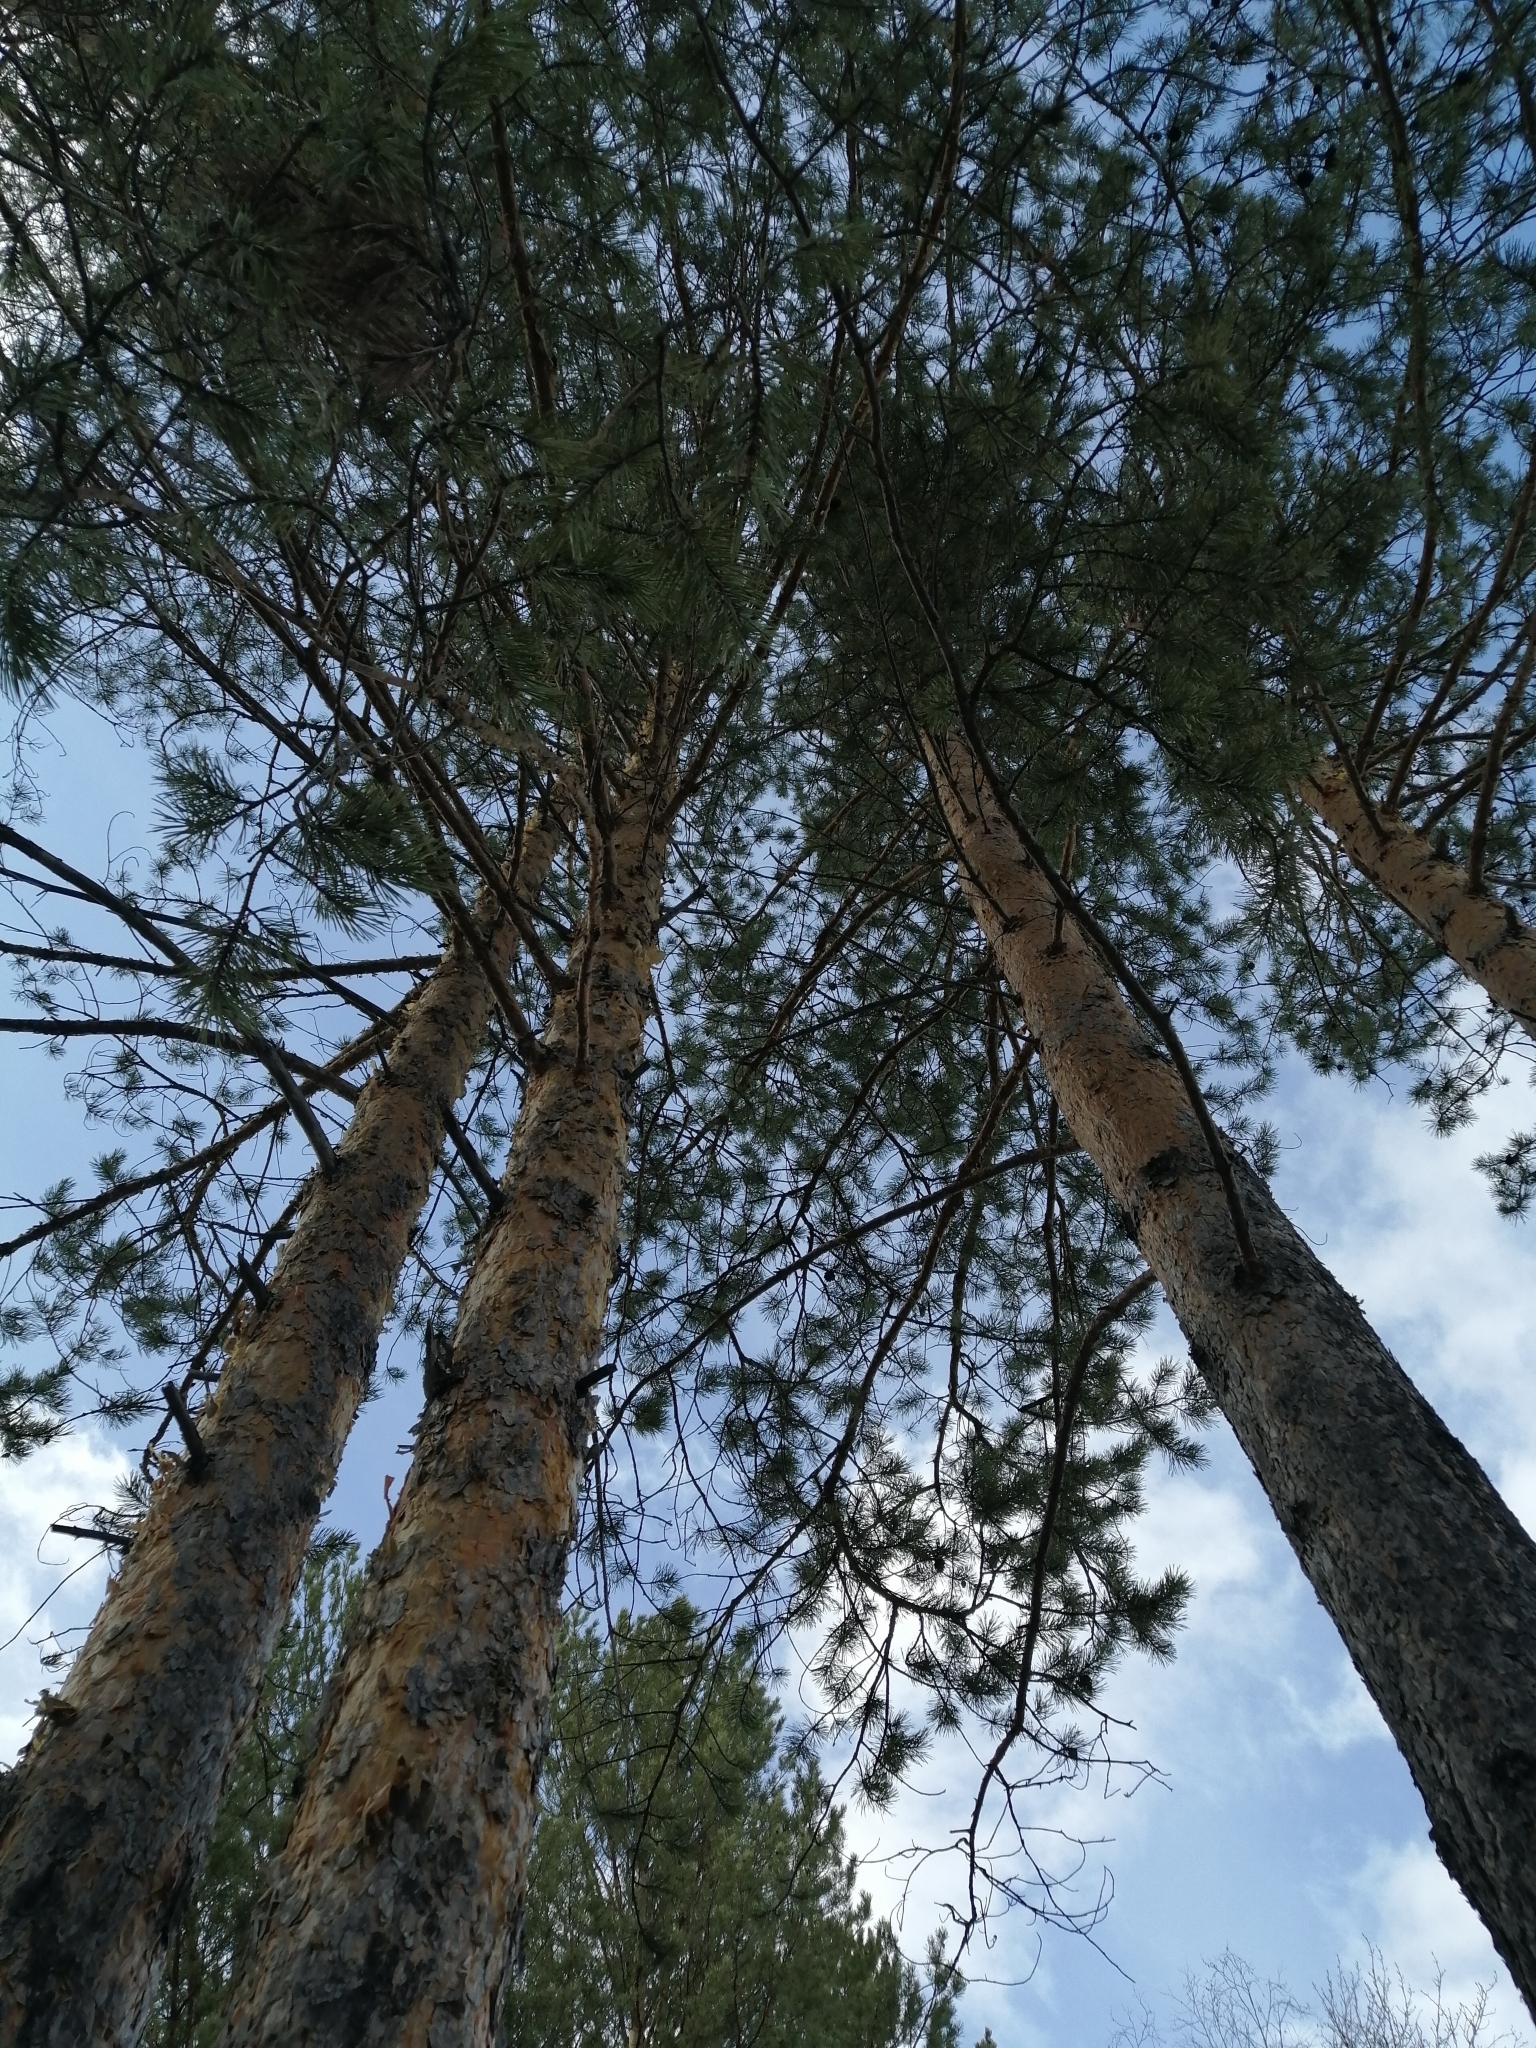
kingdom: Plantae
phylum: Tracheophyta
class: Pinopsida
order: Pinales
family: Pinaceae
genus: Pinus
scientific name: Pinus sylvestris
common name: Scots pine
